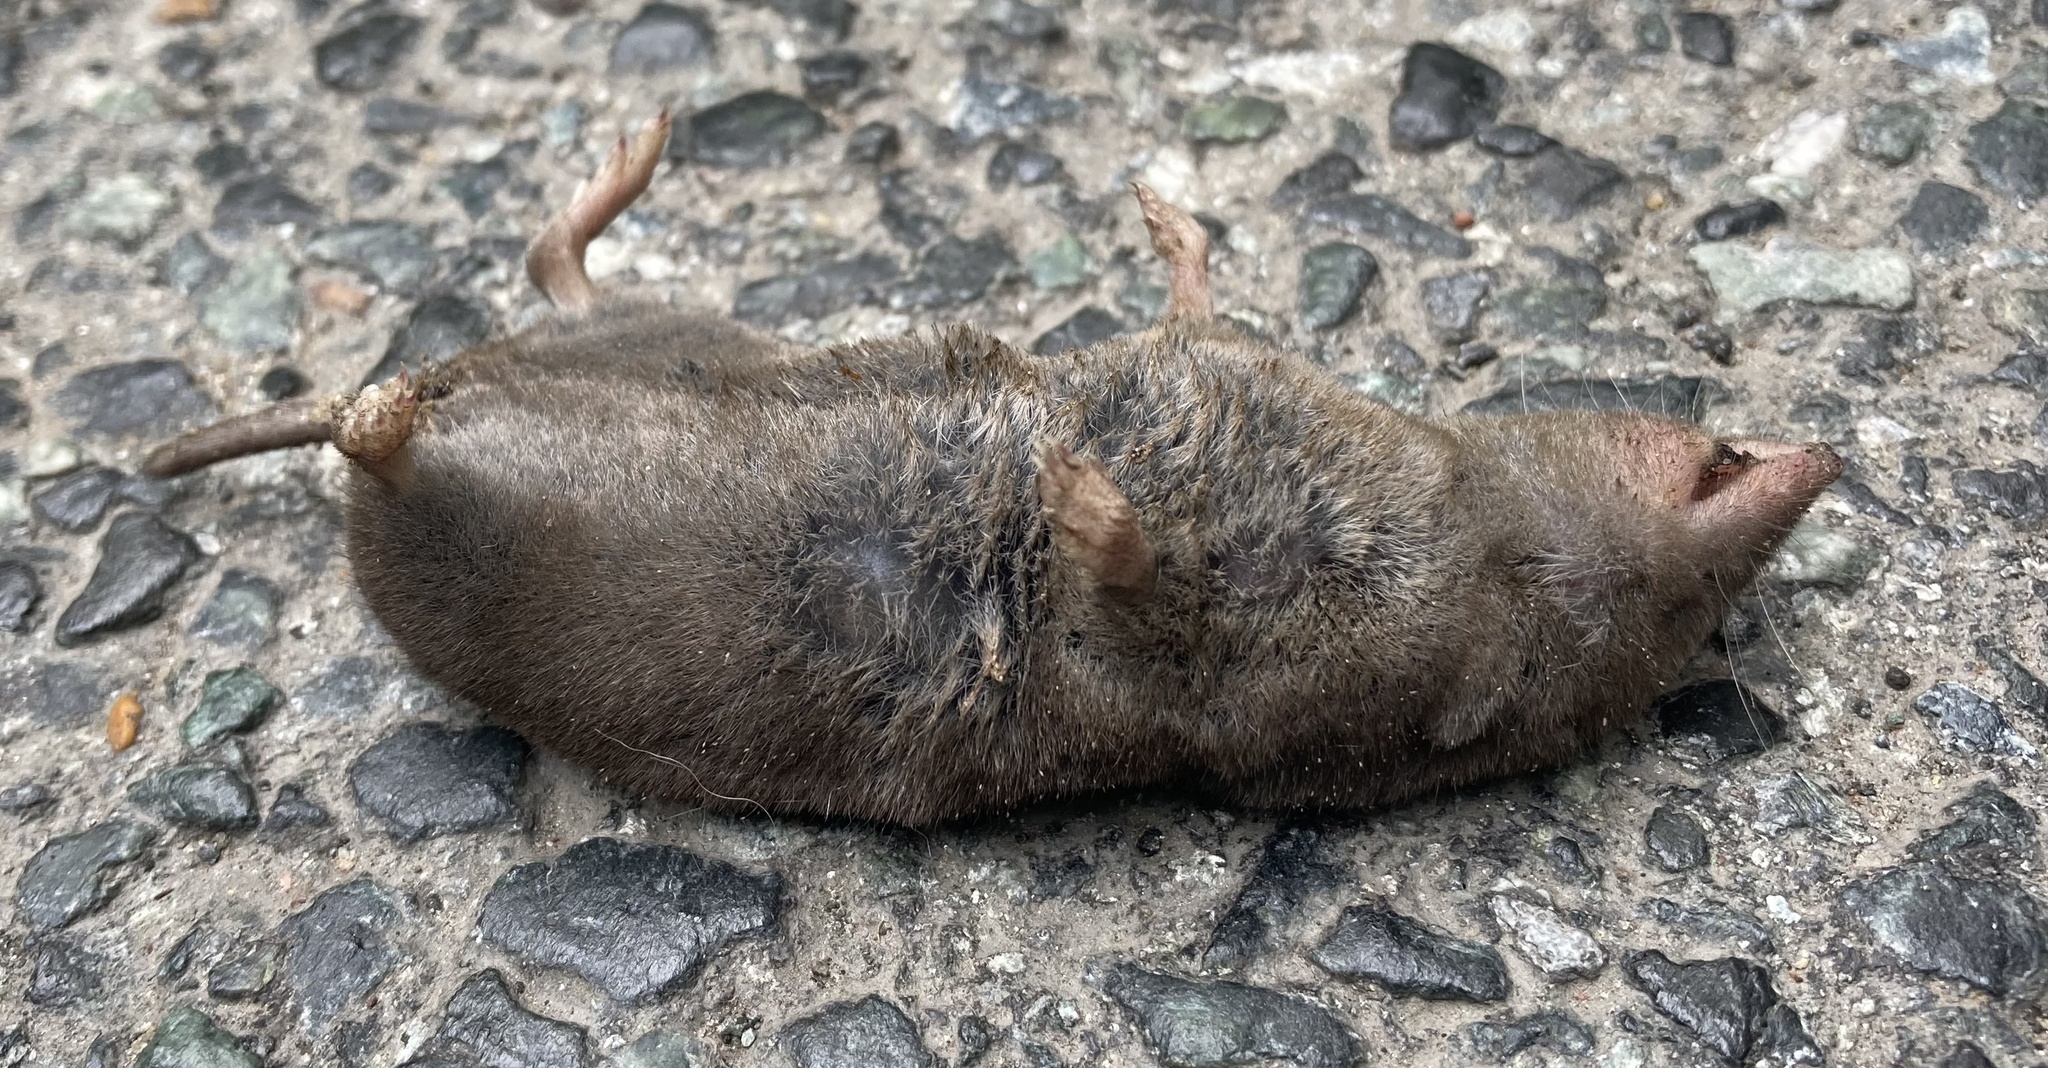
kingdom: Animalia
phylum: Chordata
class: Mammalia
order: Soricomorpha
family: Soricidae
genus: Blarina
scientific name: Blarina brevicauda
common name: Northern short-tailed shrew
